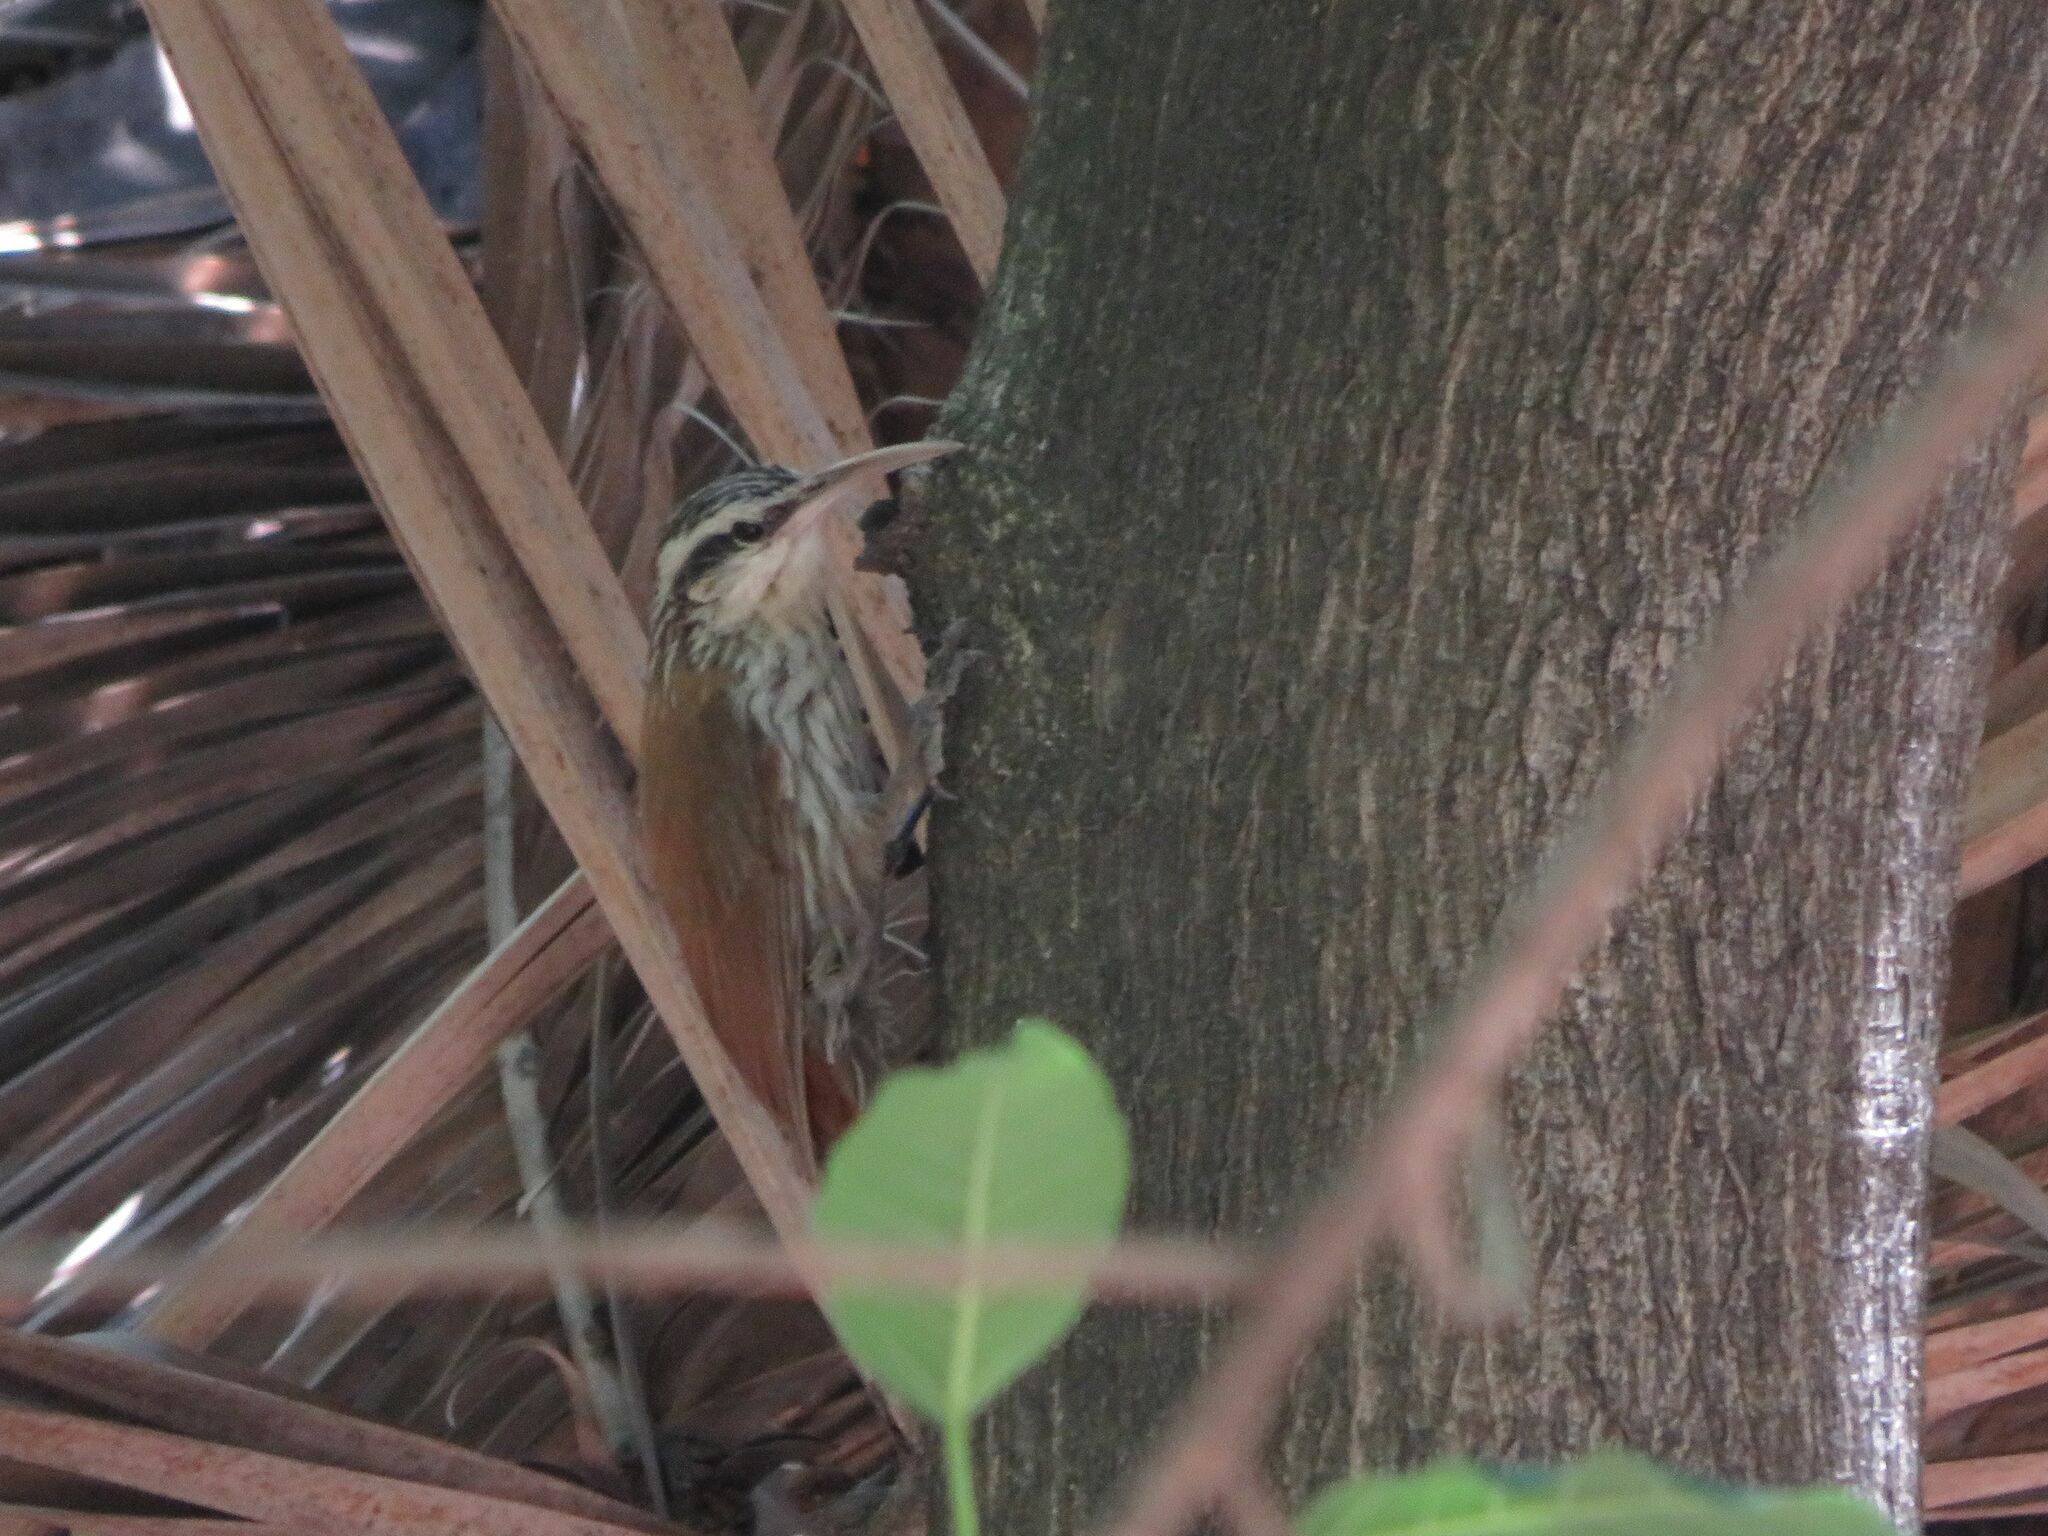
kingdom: Animalia
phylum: Chordata
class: Aves
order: Passeriformes
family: Furnariidae
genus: Lepidocolaptes
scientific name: Lepidocolaptes angustirostris
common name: Narrow-billed woodcreeper
